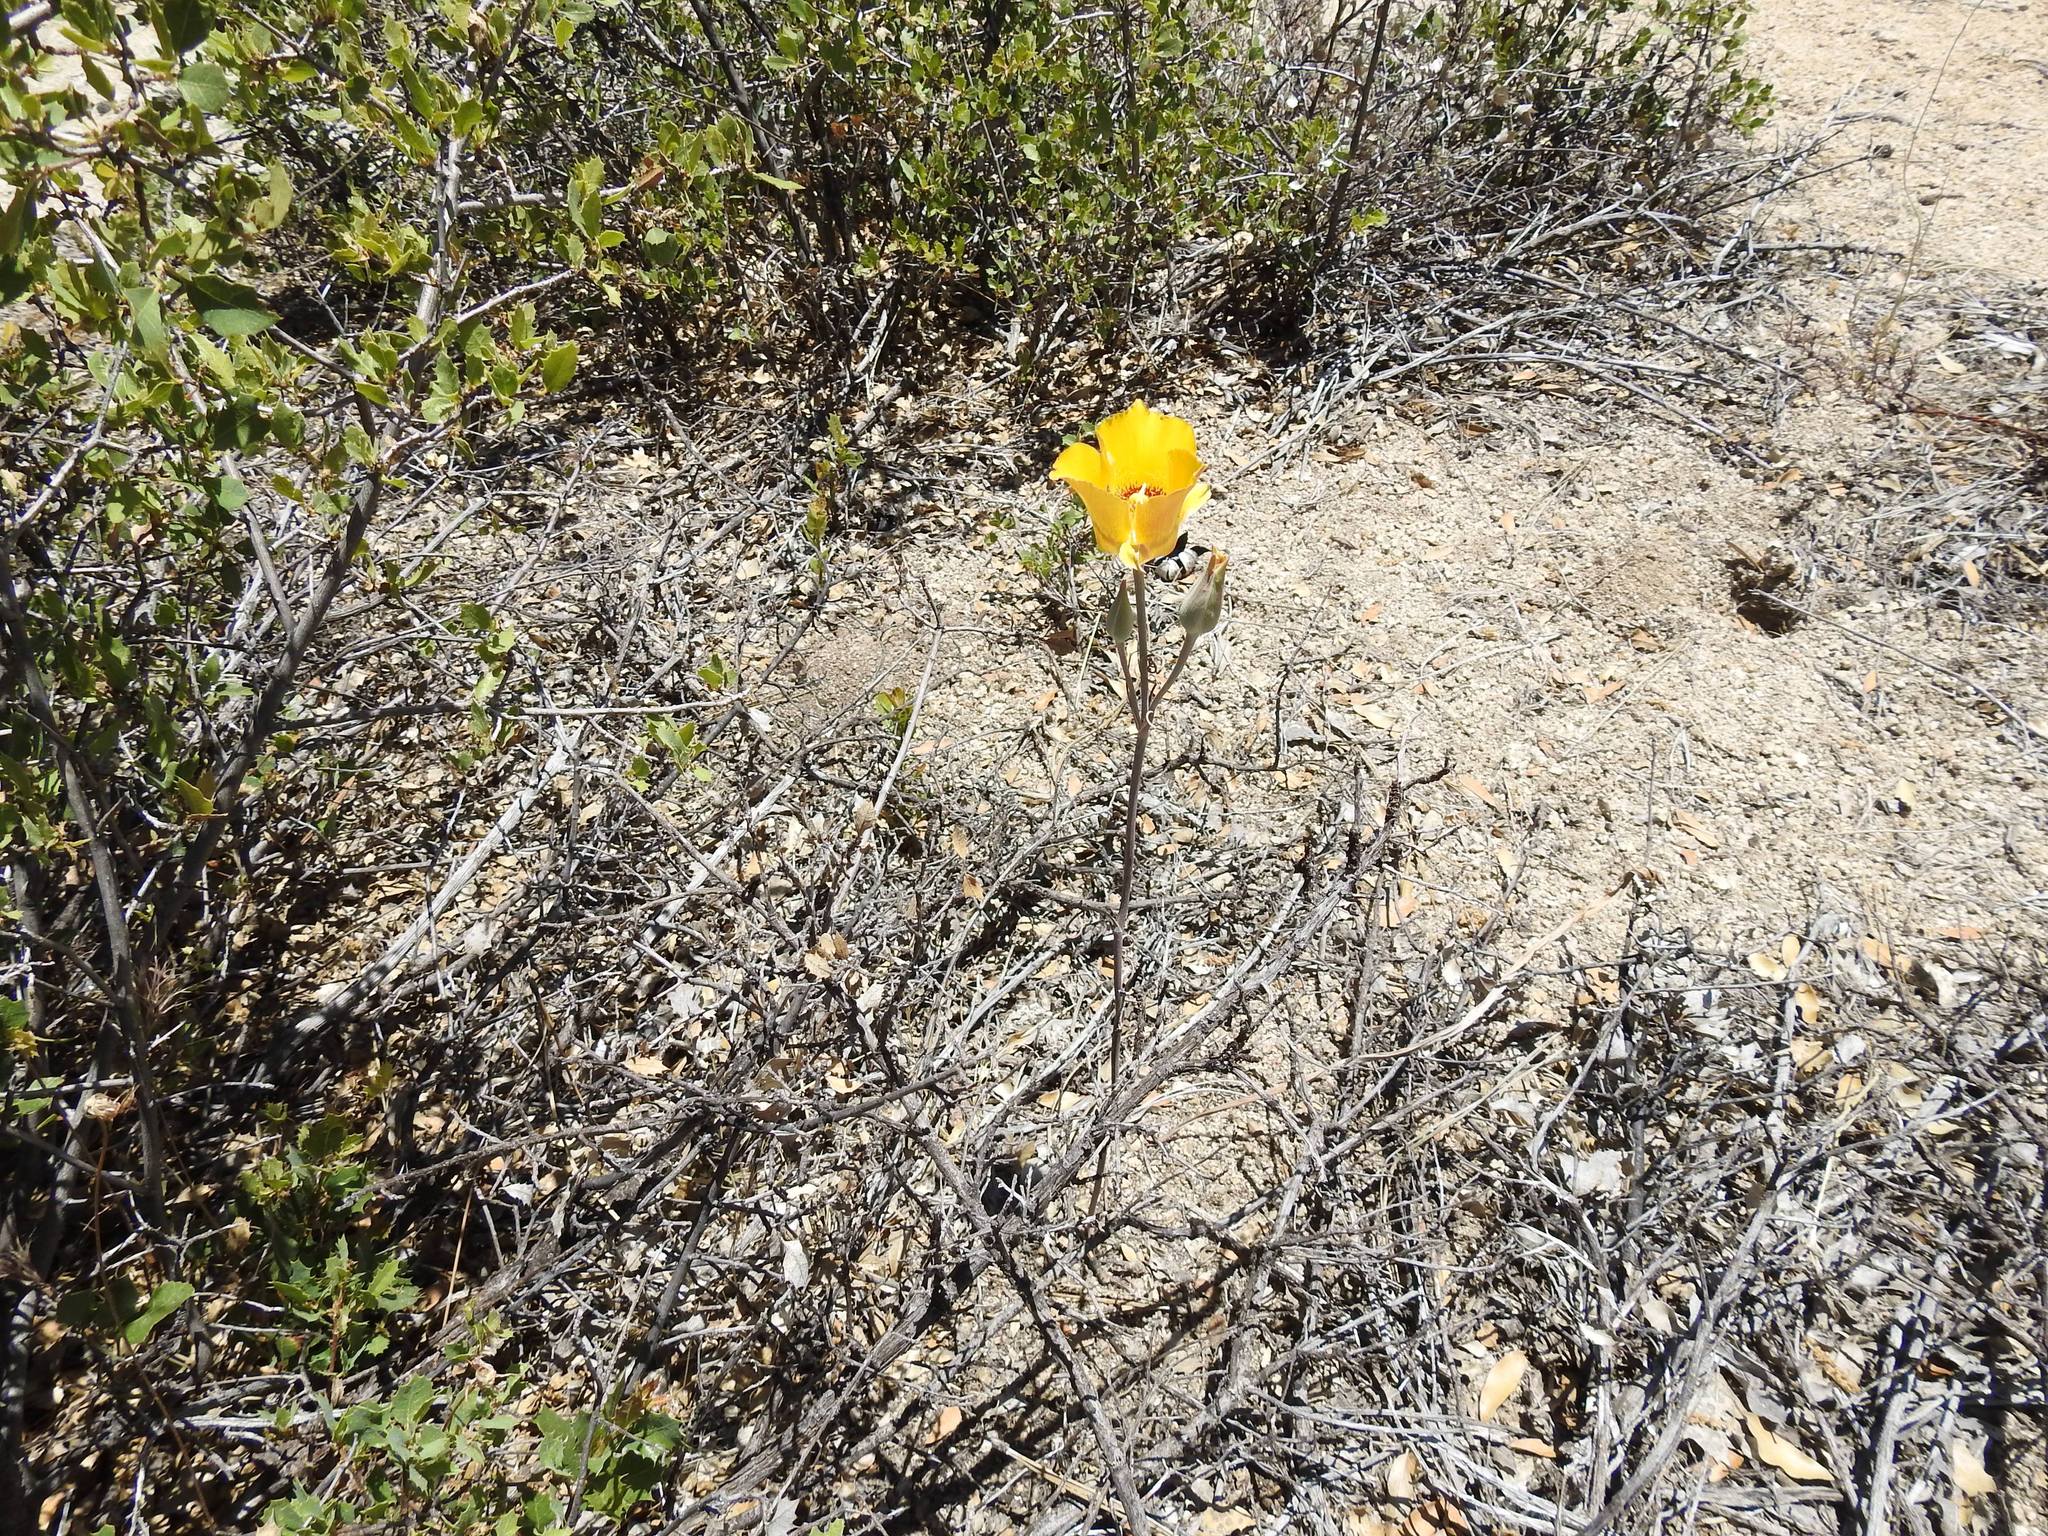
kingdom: Plantae
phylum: Tracheophyta
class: Liliopsida
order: Liliales
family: Liliaceae
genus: Calochortus
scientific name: Calochortus concolor
